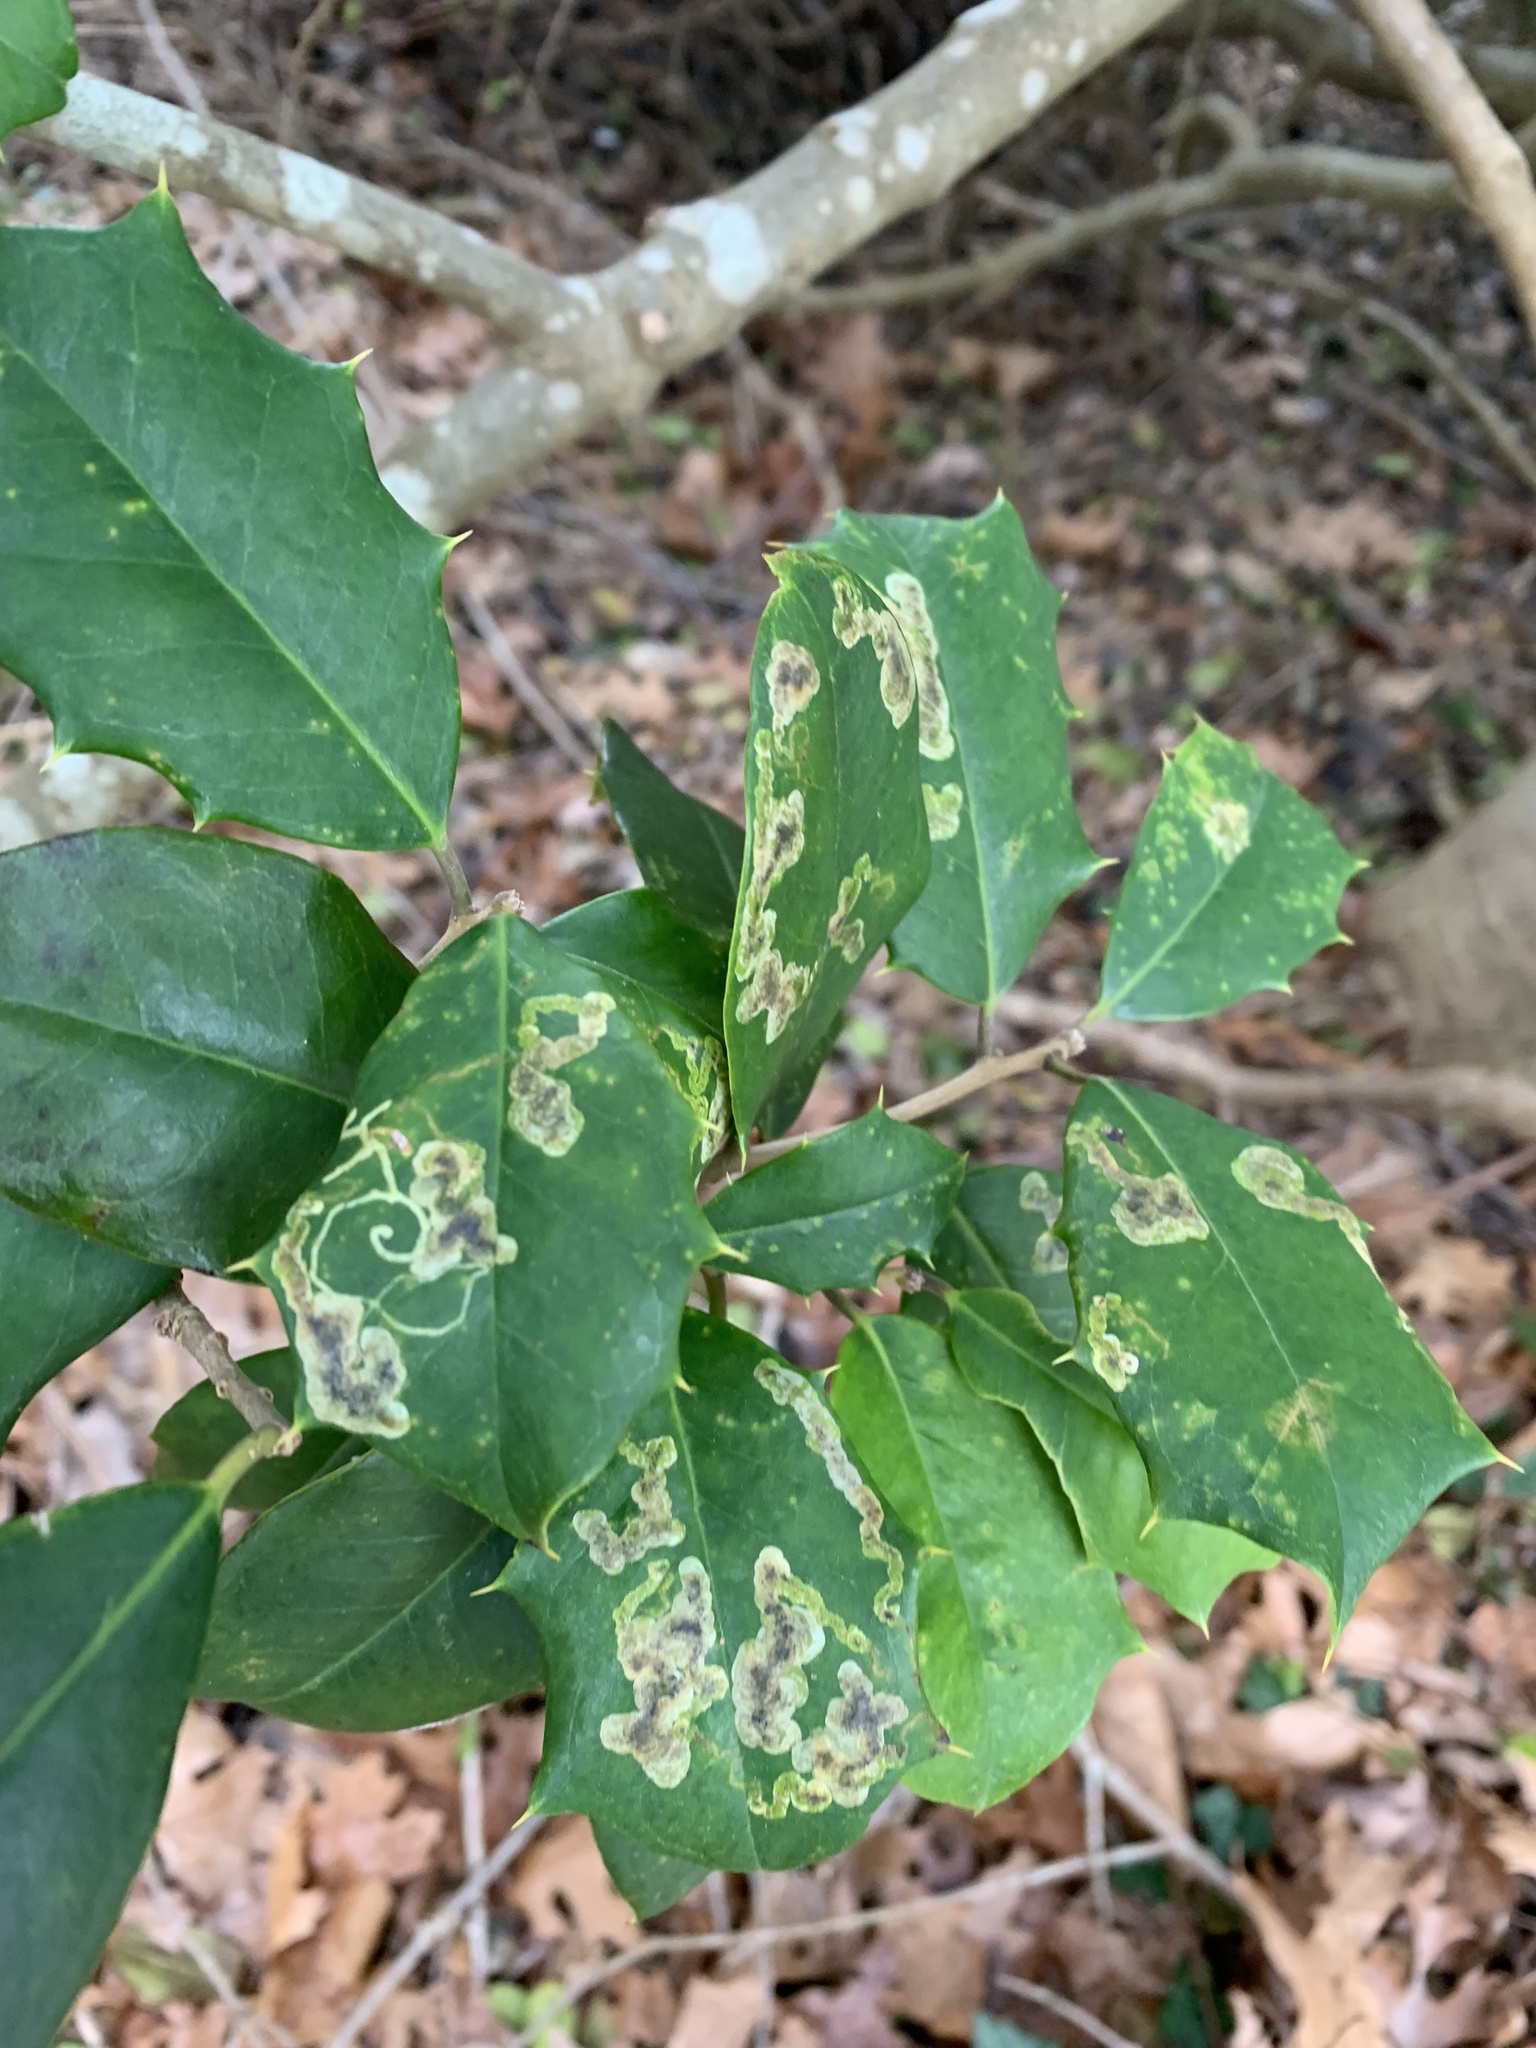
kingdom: Animalia
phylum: Arthropoda
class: Insecta
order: Diptera
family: Agromyzidae
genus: Phytomyza
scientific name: Phytomyza ilicicola
